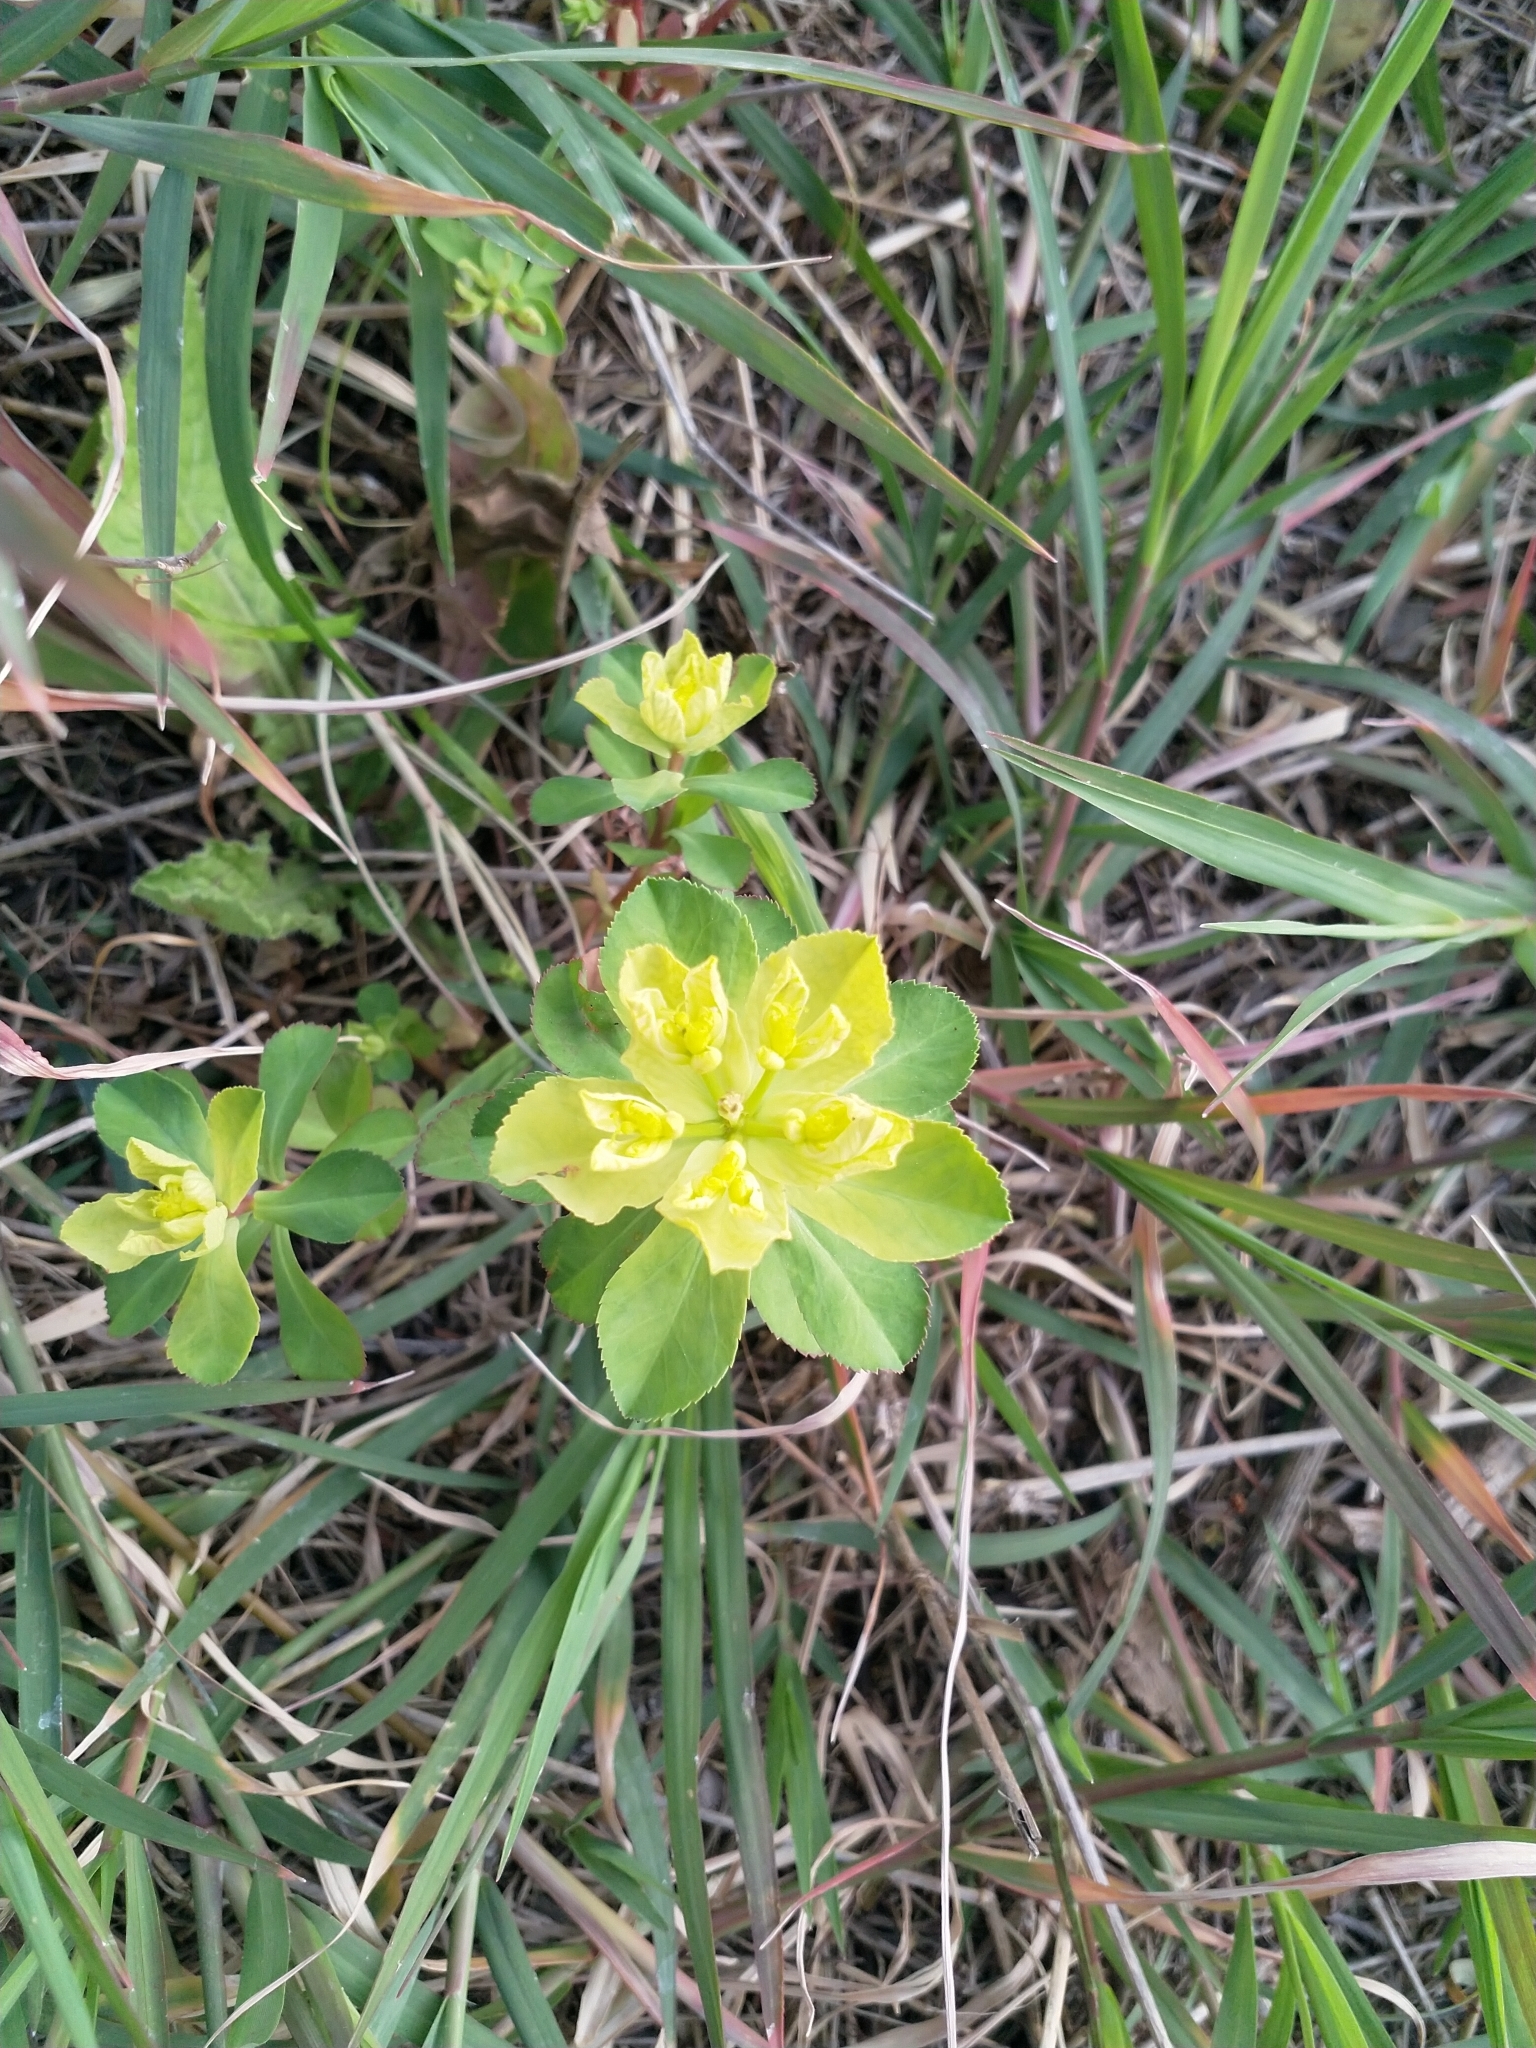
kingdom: Plantae
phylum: Tracheophyta
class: Magnoliopsida
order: Malpighiales
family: Euphorbiaceae
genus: Euphorbia
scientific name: Euphorbia helioscopia
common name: Sun spurge
